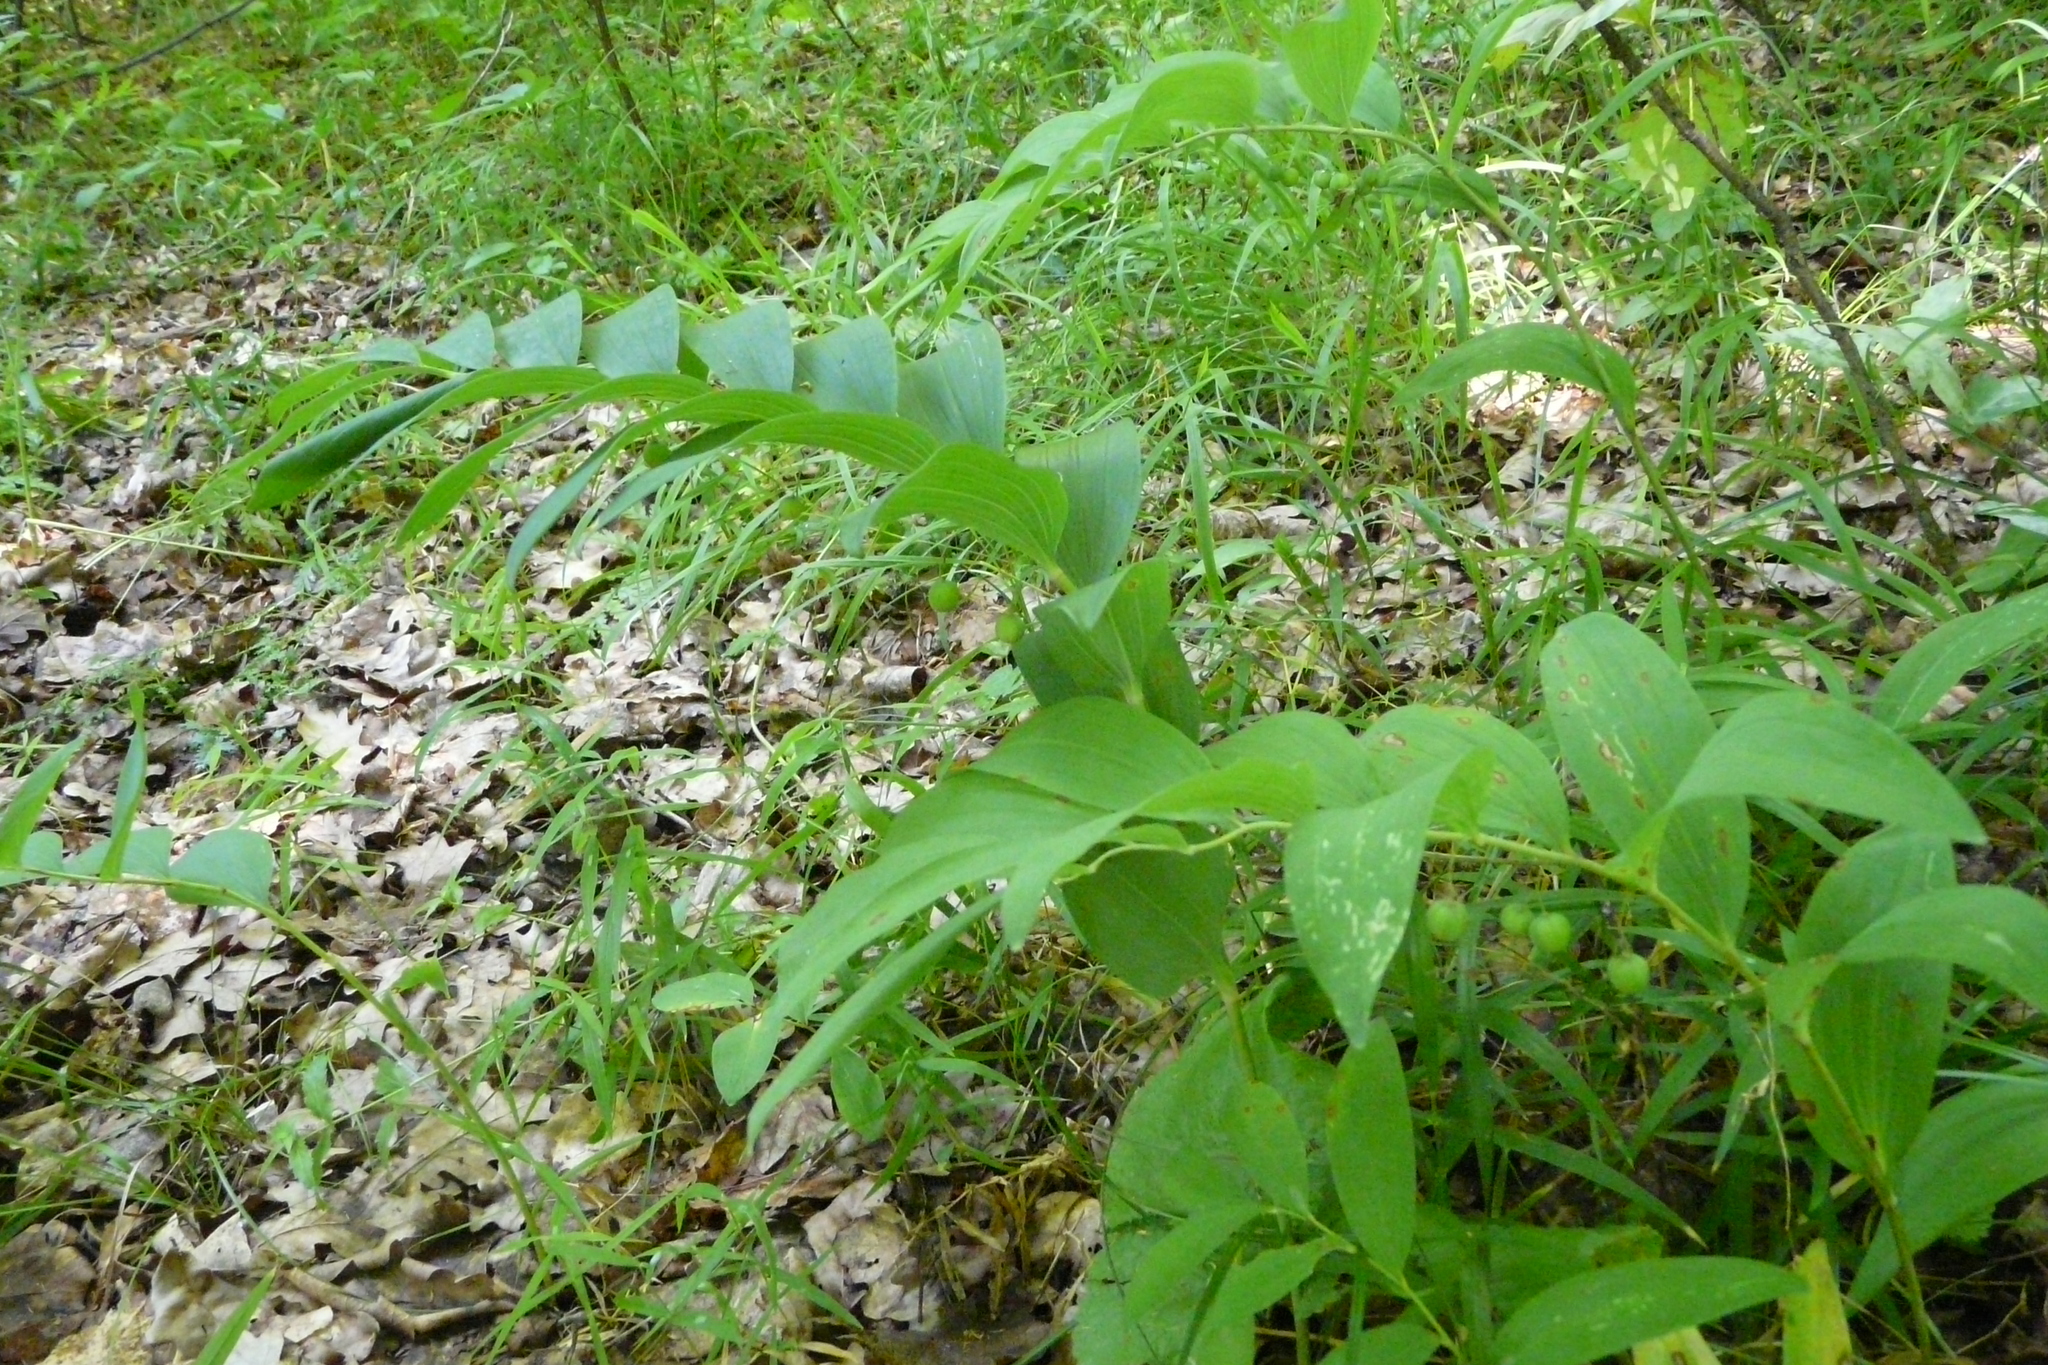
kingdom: Plantae
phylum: Tracheophyta
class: Liliopsida
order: Asparagales
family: Asparagaceae
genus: Polygonatum
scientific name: Polygonatum multiflorum
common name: Solomon's-seal
